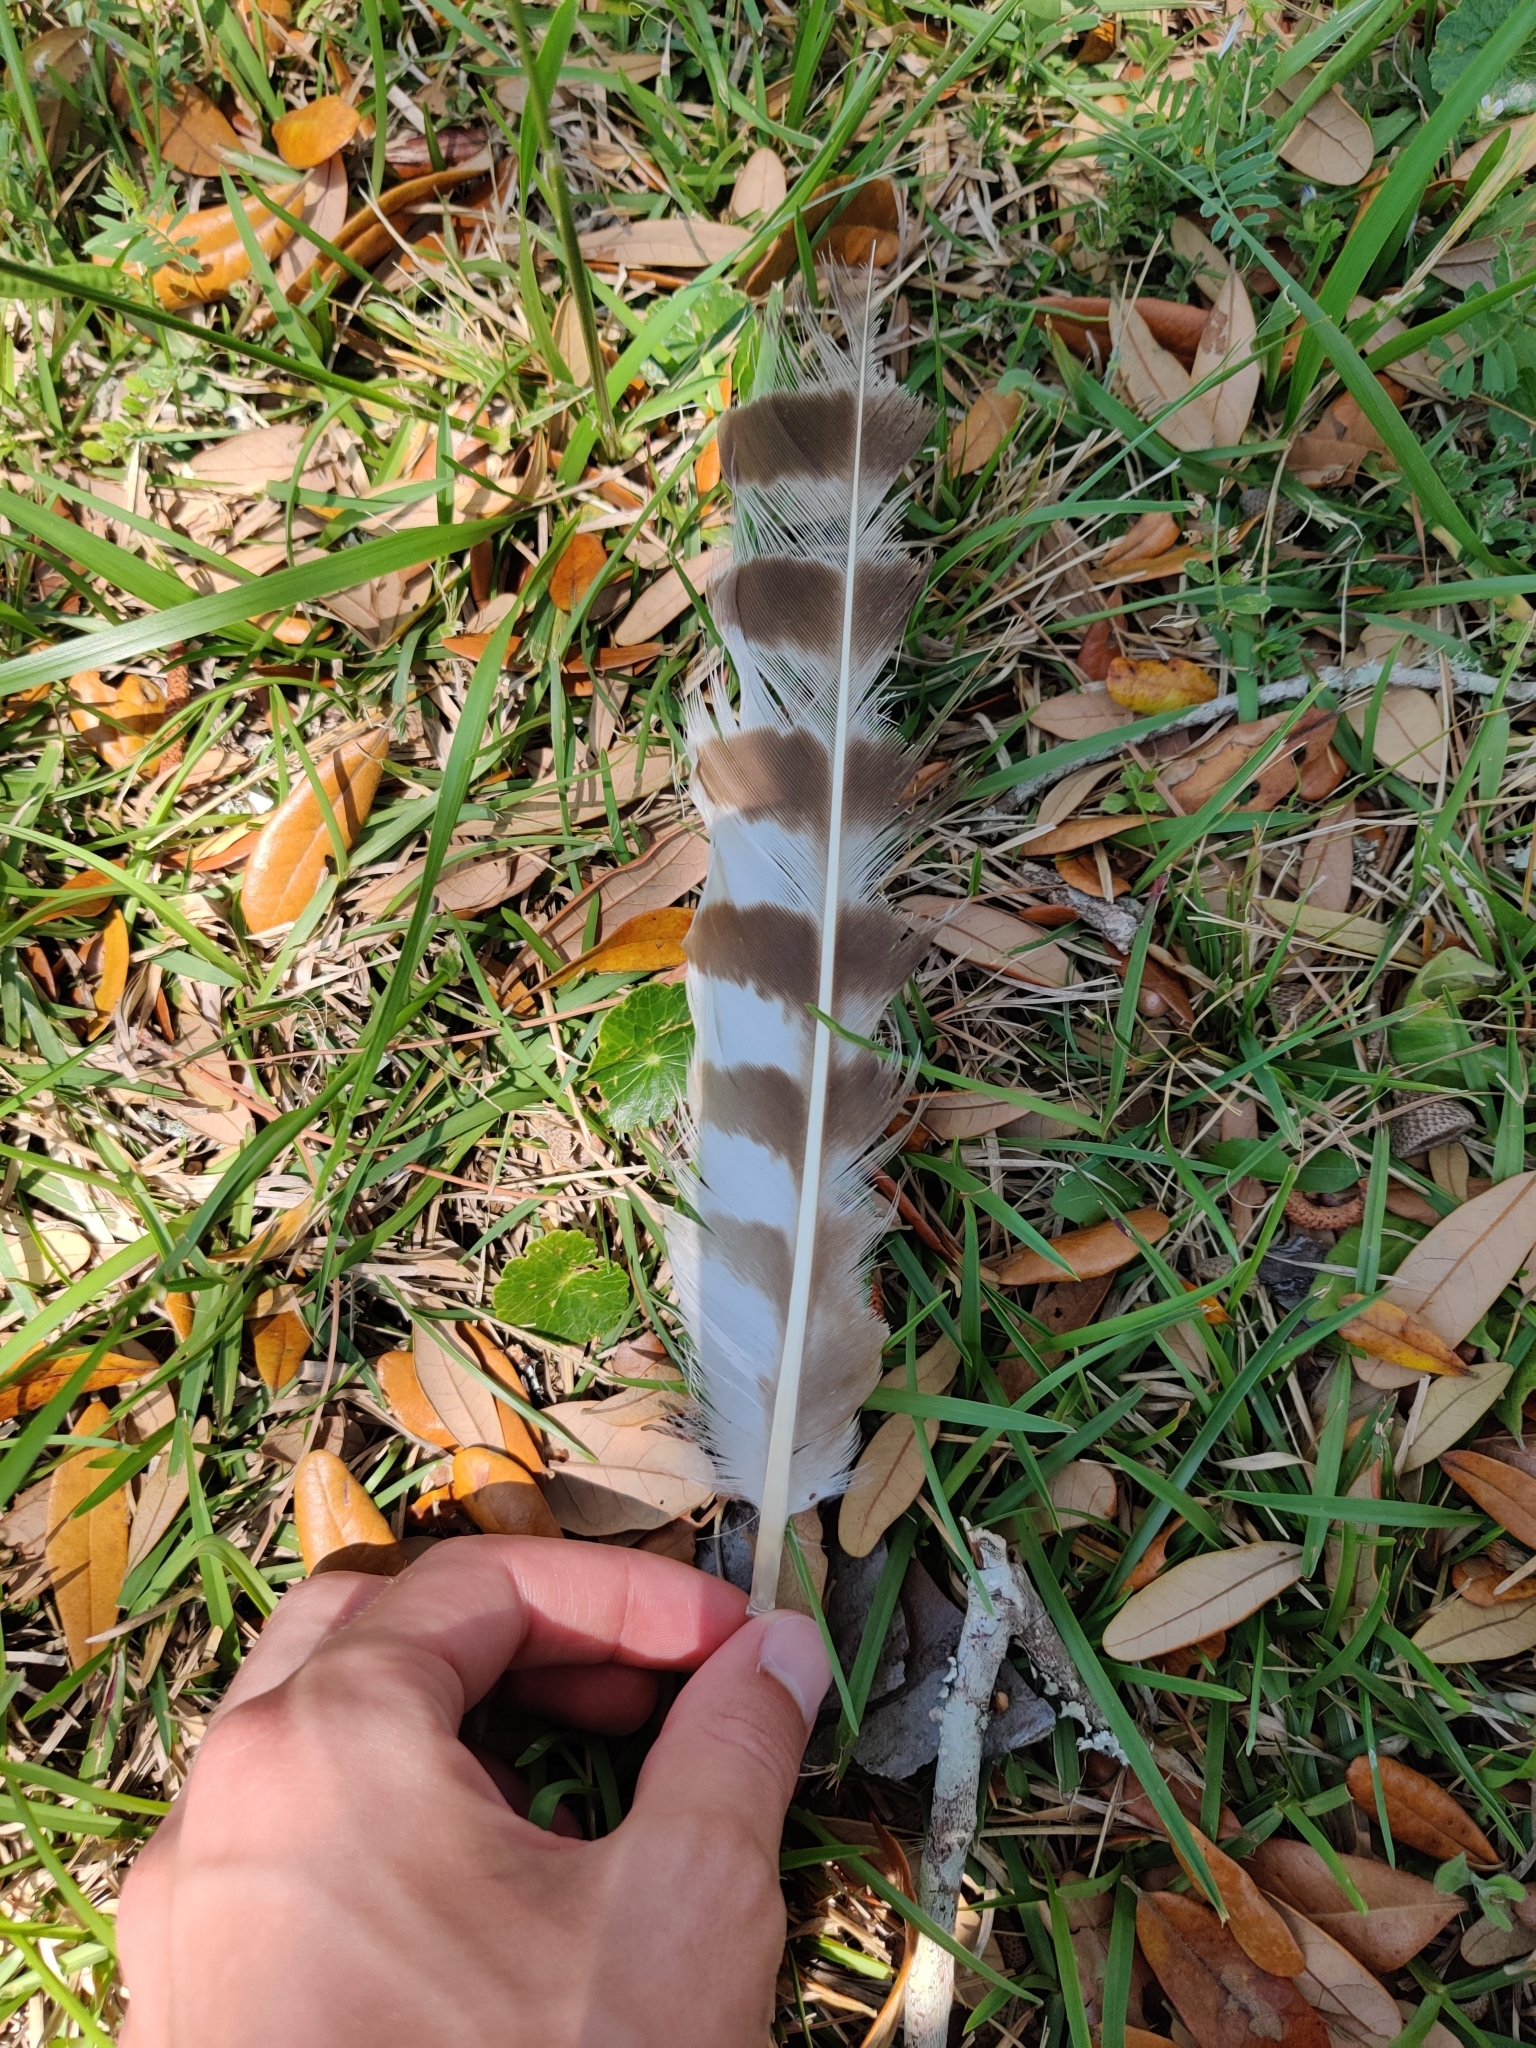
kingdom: Animalia
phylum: Chordata
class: Aves
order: Accipitriformes
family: Pandionidae
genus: Pandion
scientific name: Pandion haliaetus
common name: Osprey
